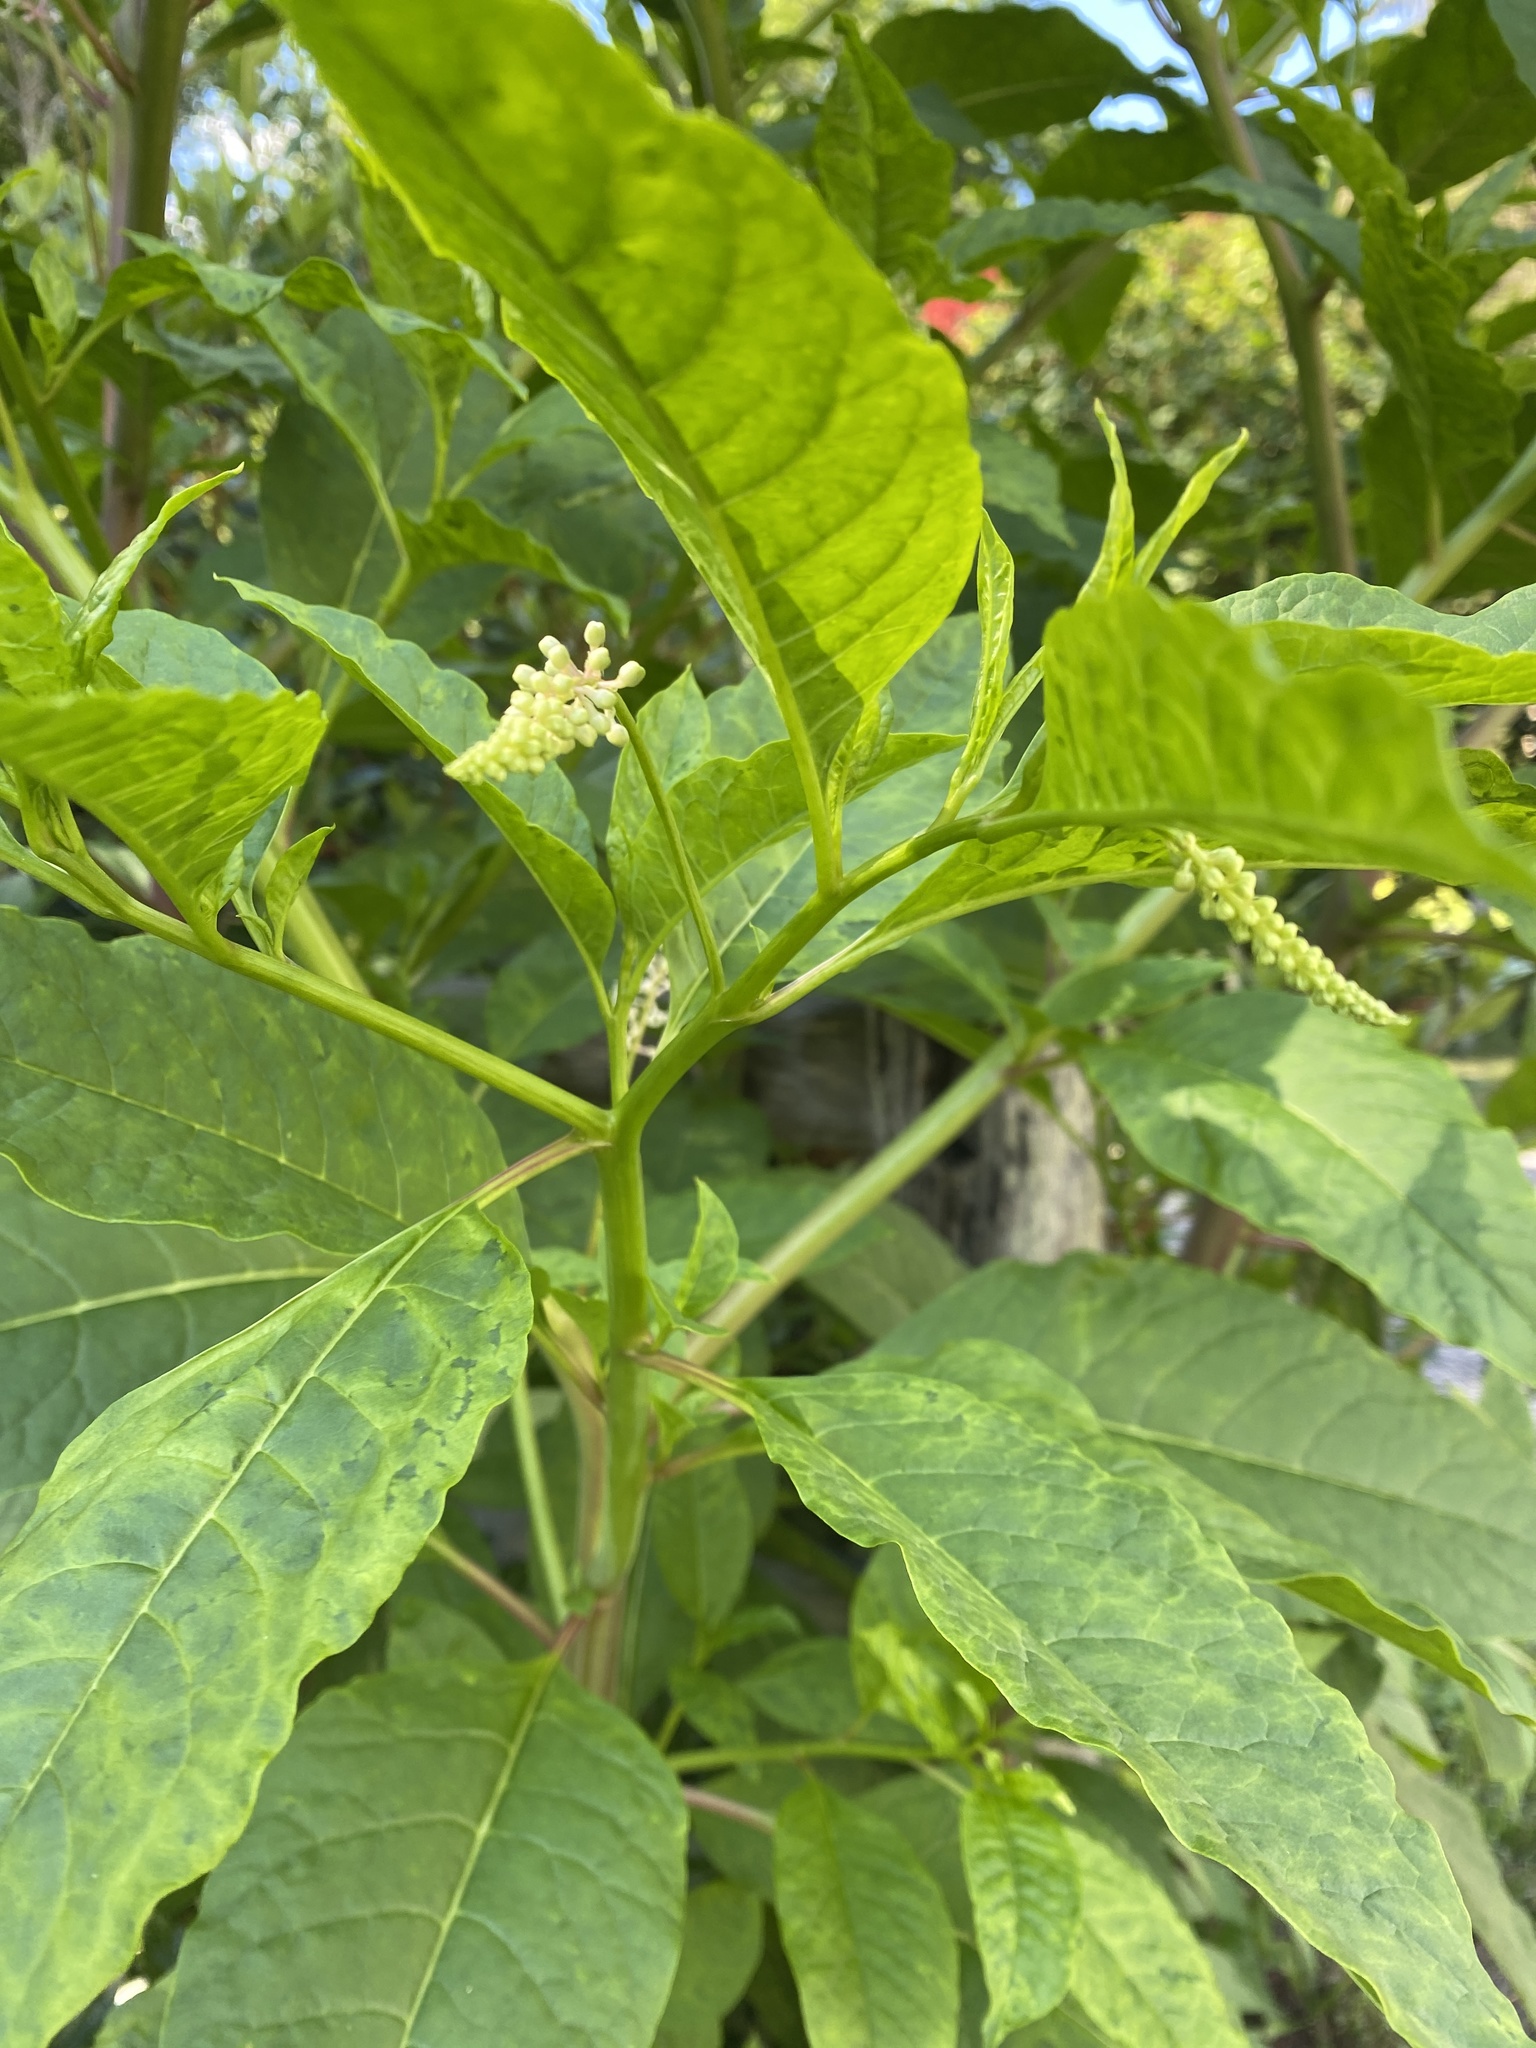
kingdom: Plantae
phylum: Tracheophyta
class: Magnoliopsida
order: Caryophyllales
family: Phytolaccaceae
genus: Phytolacca
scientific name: Phytolacca americana
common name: American pokeweed
